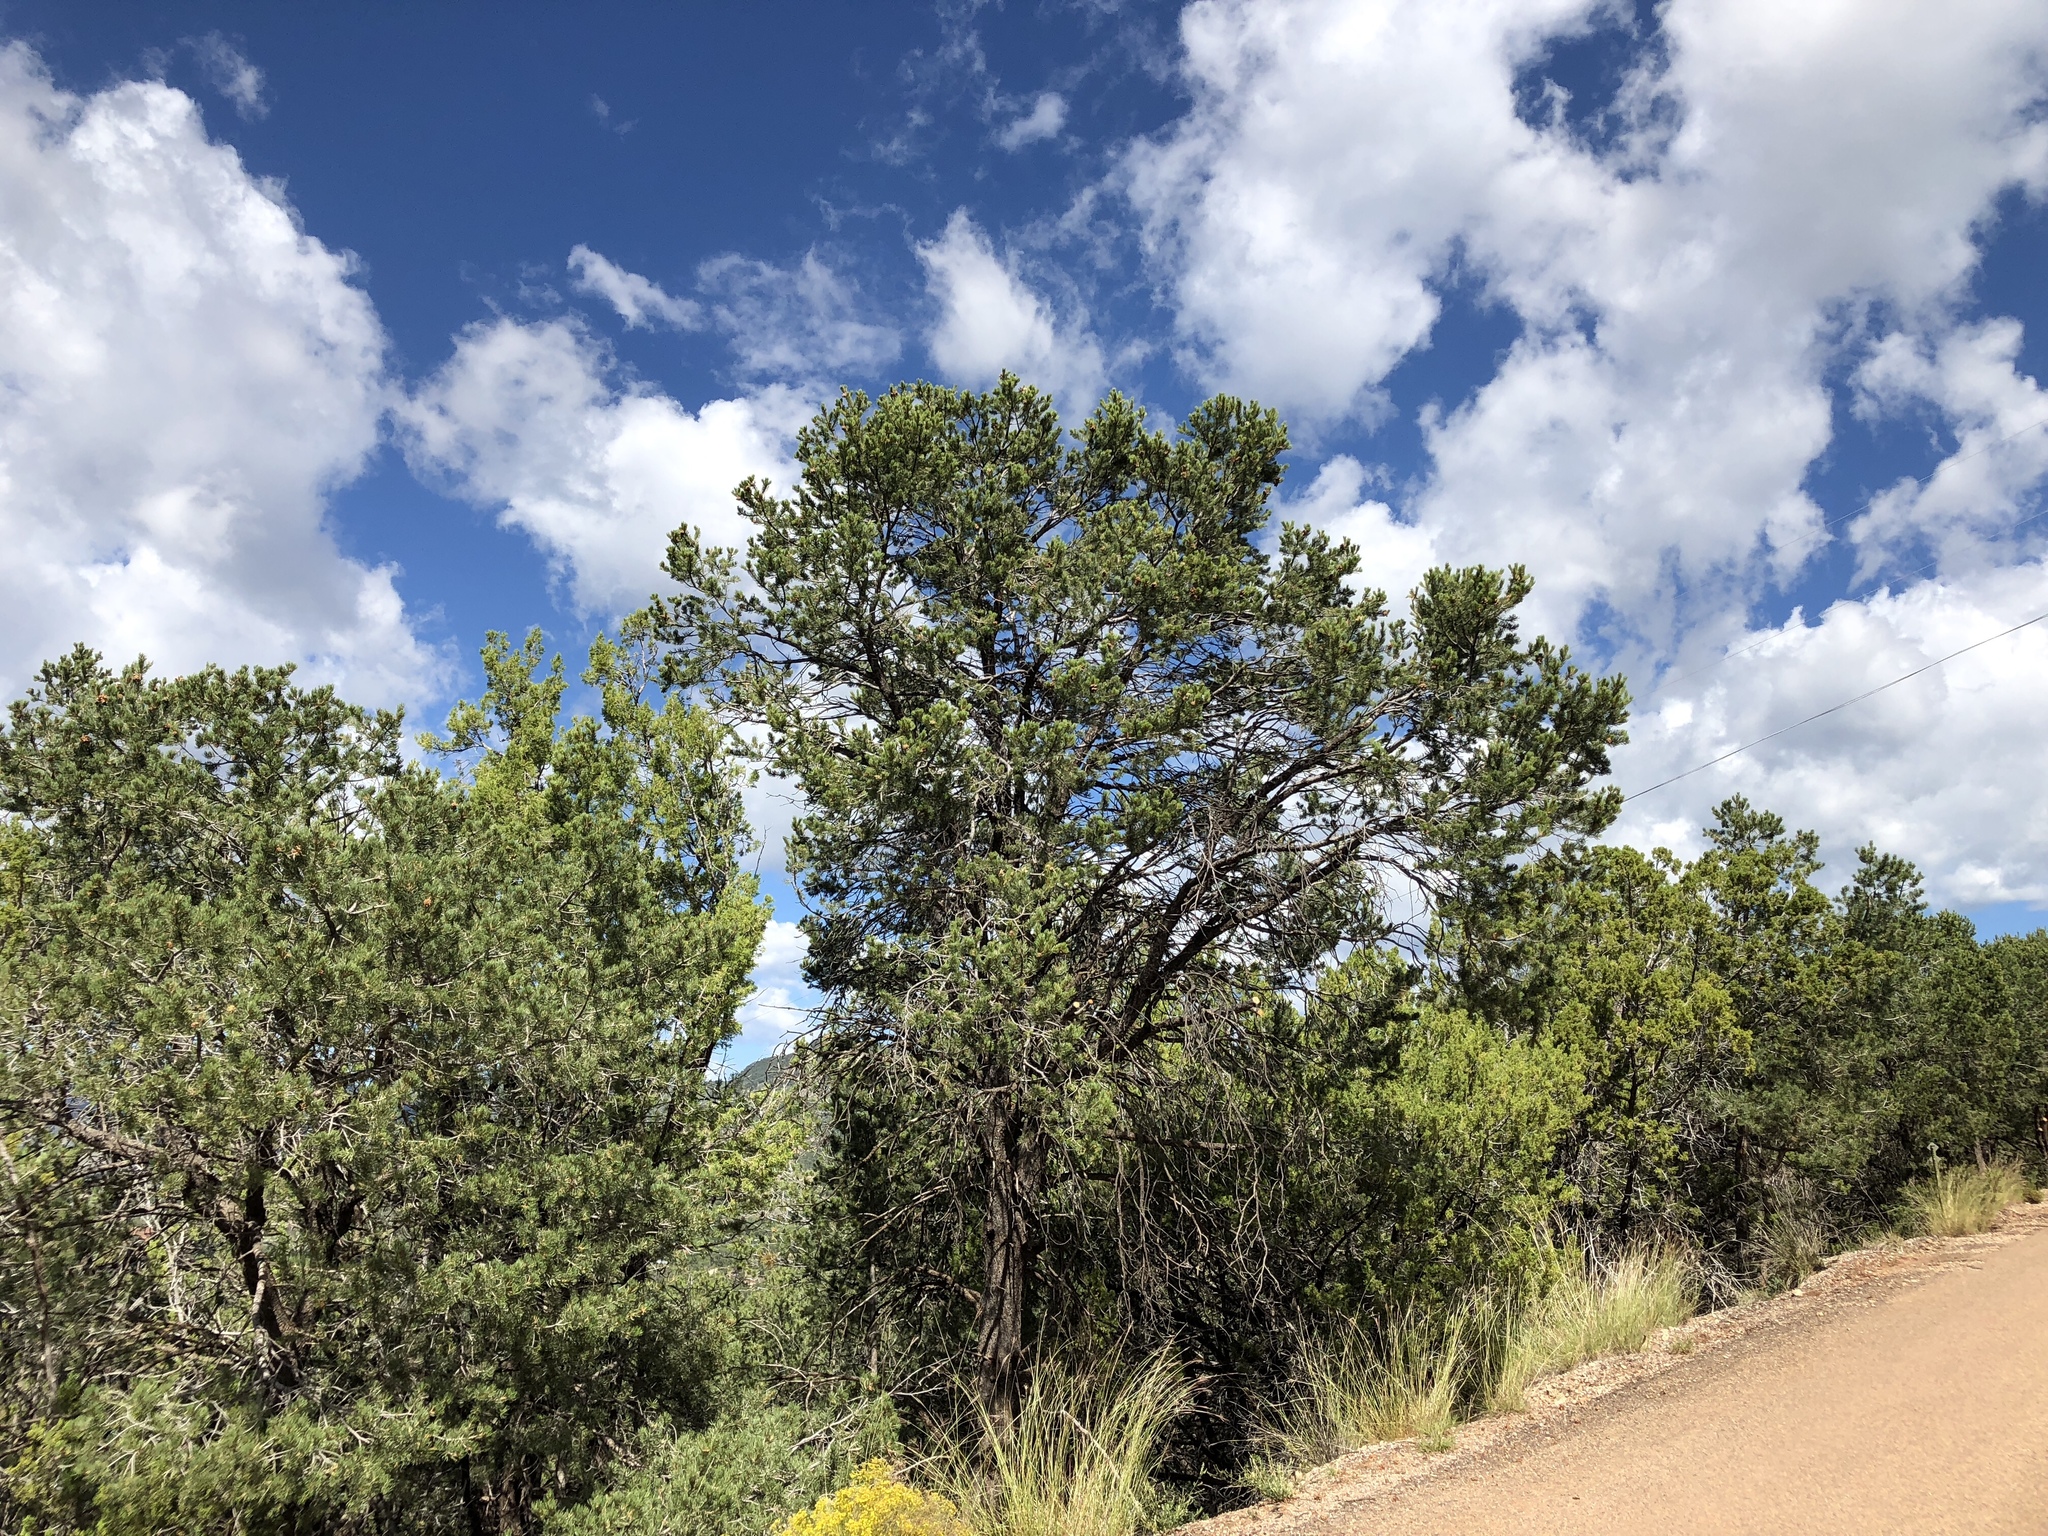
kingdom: Plantae
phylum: Tracheophyta
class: Pinopsida
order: Pinales
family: Pinaceae
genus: Pinus
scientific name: Pinus edulis
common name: Colorado pinyon
